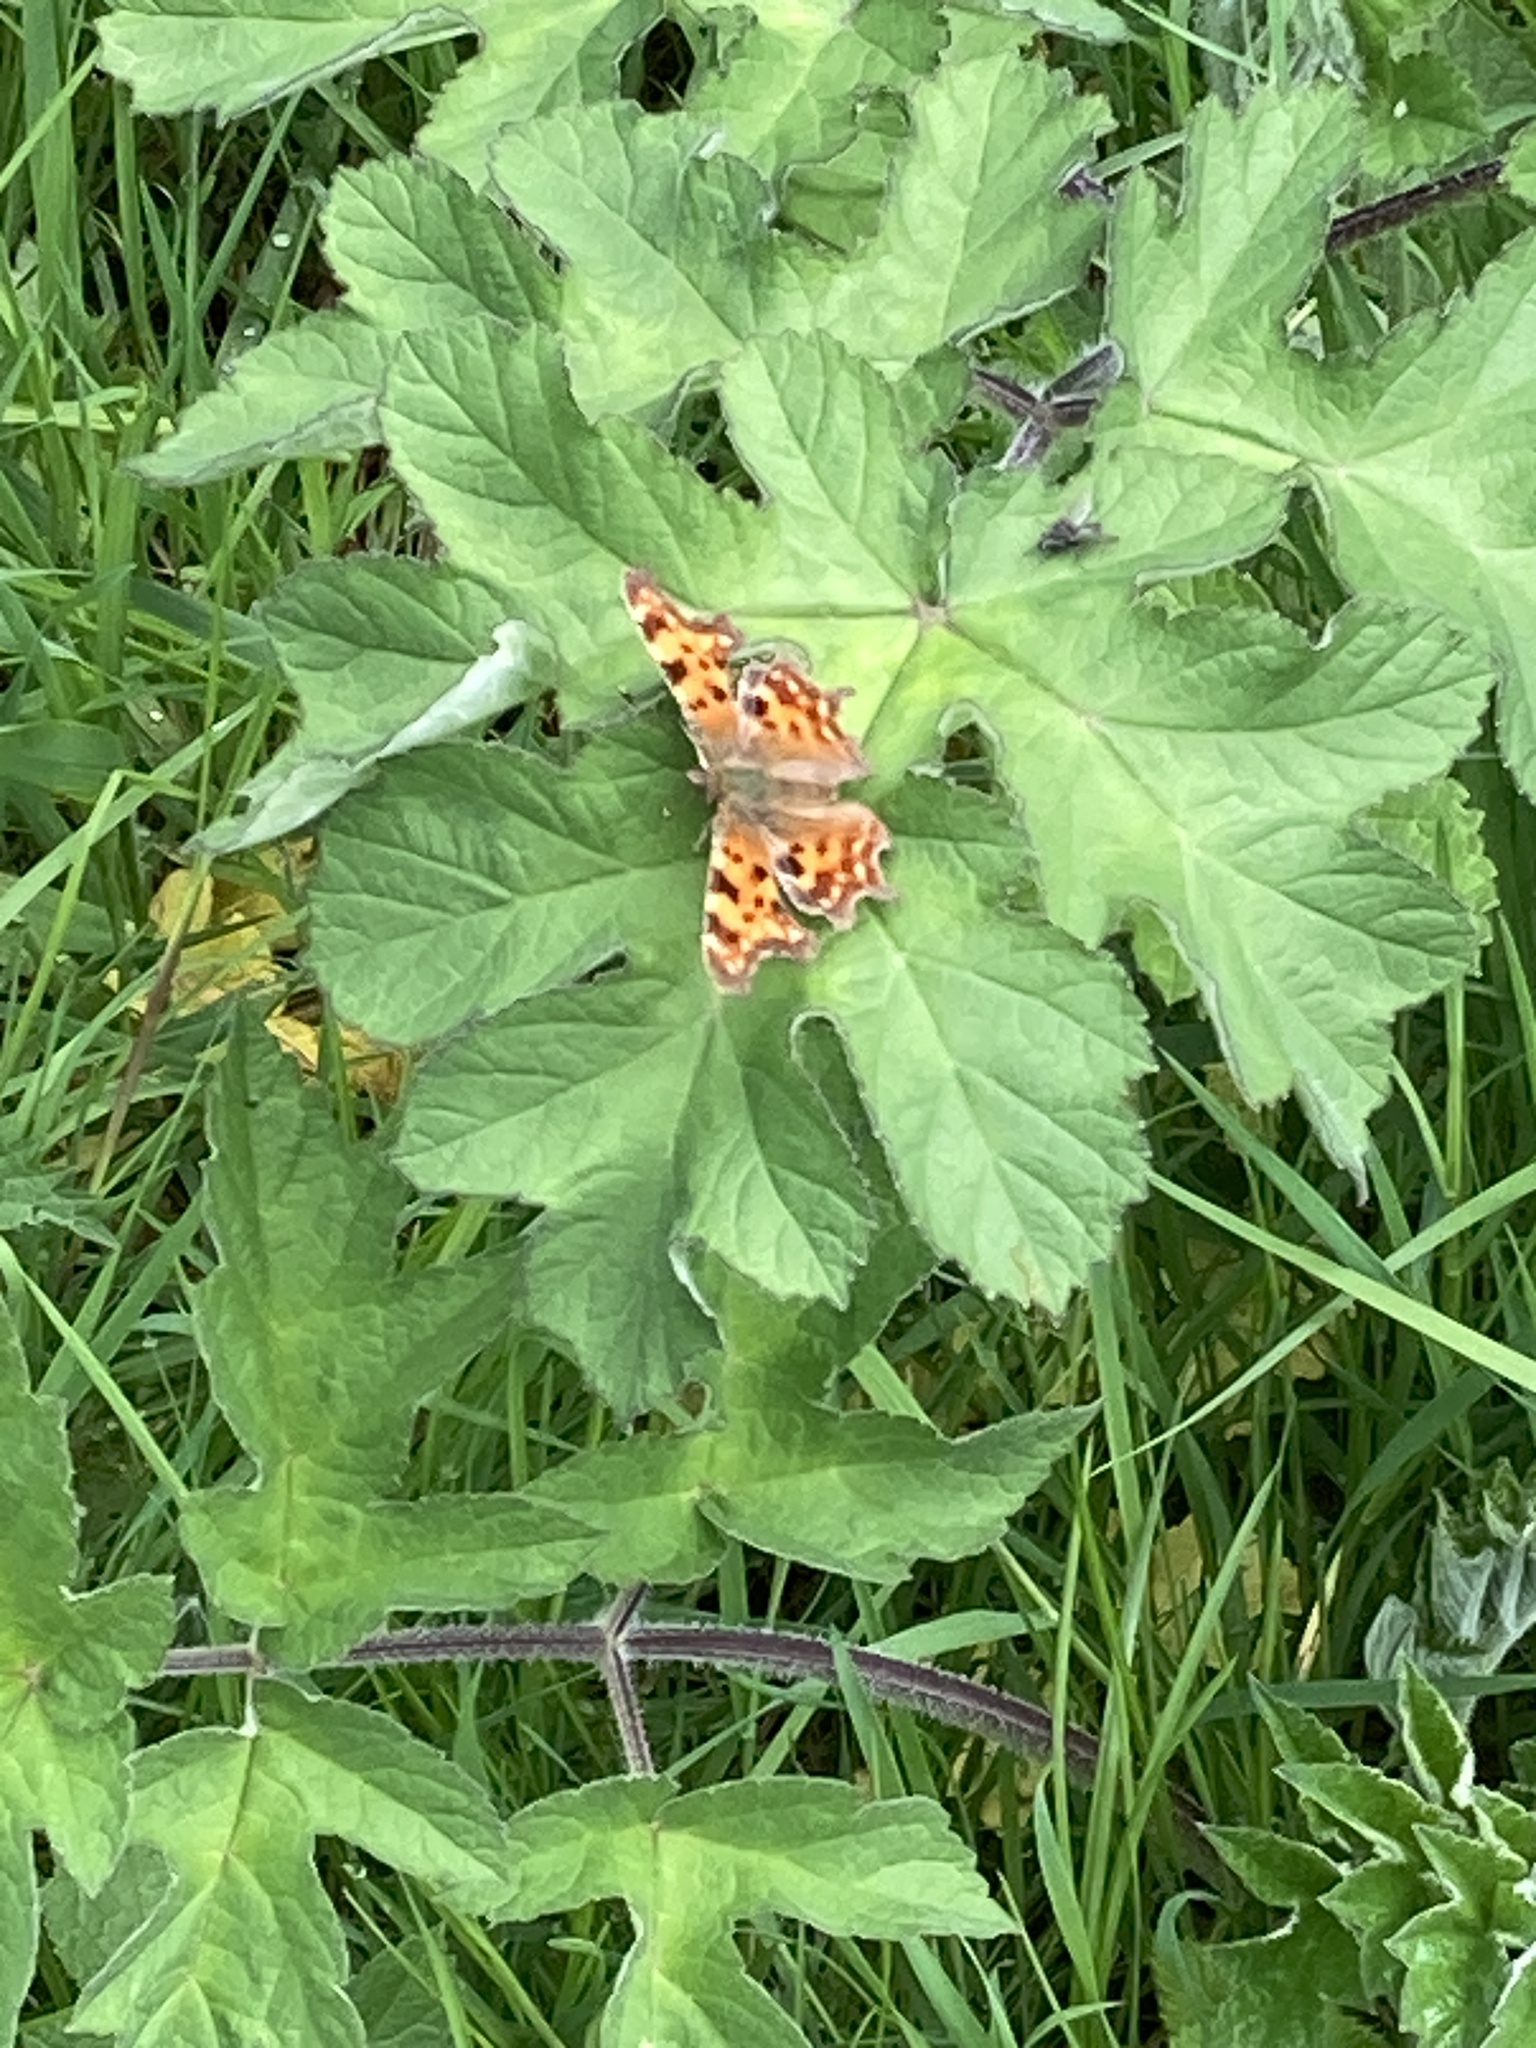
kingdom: Animalia
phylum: Arthropoda
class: Insecta
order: Lepidoptera
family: Nymphalidae
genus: Polygonia
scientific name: Polygonia c-album
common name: Comma
